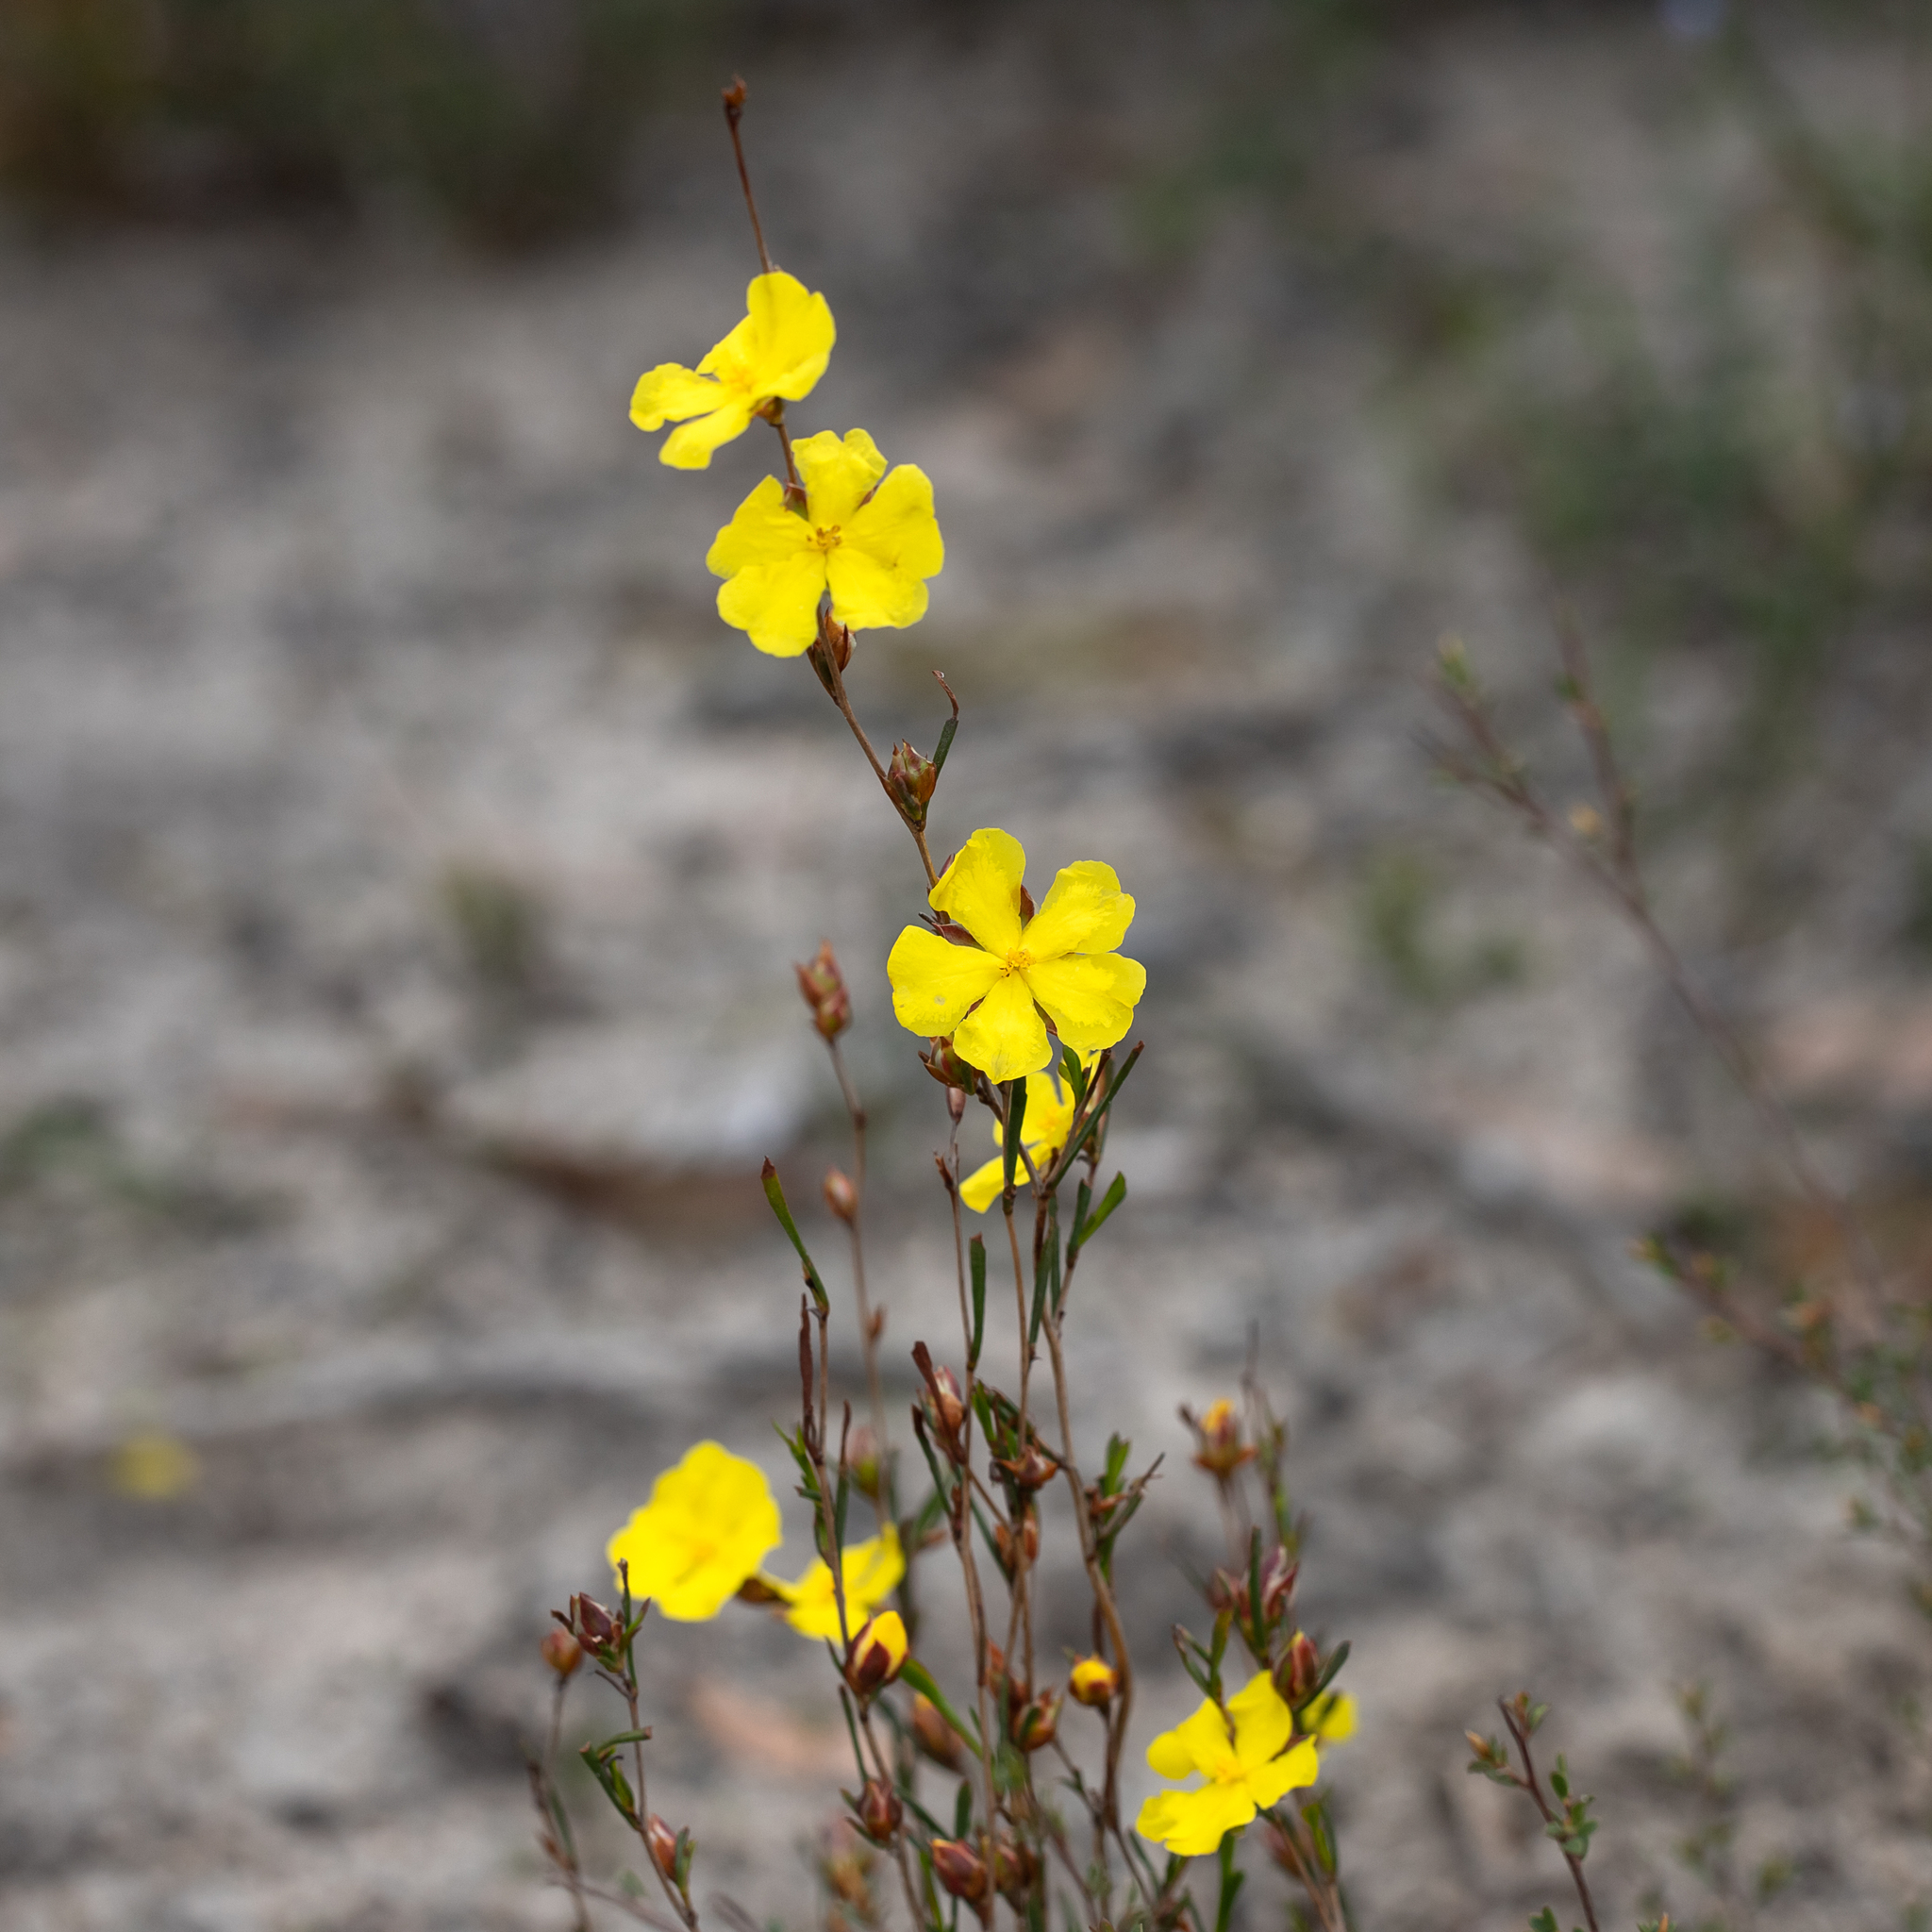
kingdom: Plantae
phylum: Tracheophyta
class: Magnoliopsida
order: Dilleniales
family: Dilleniaceae
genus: Hibbertia
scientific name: Hibbertia virgata
